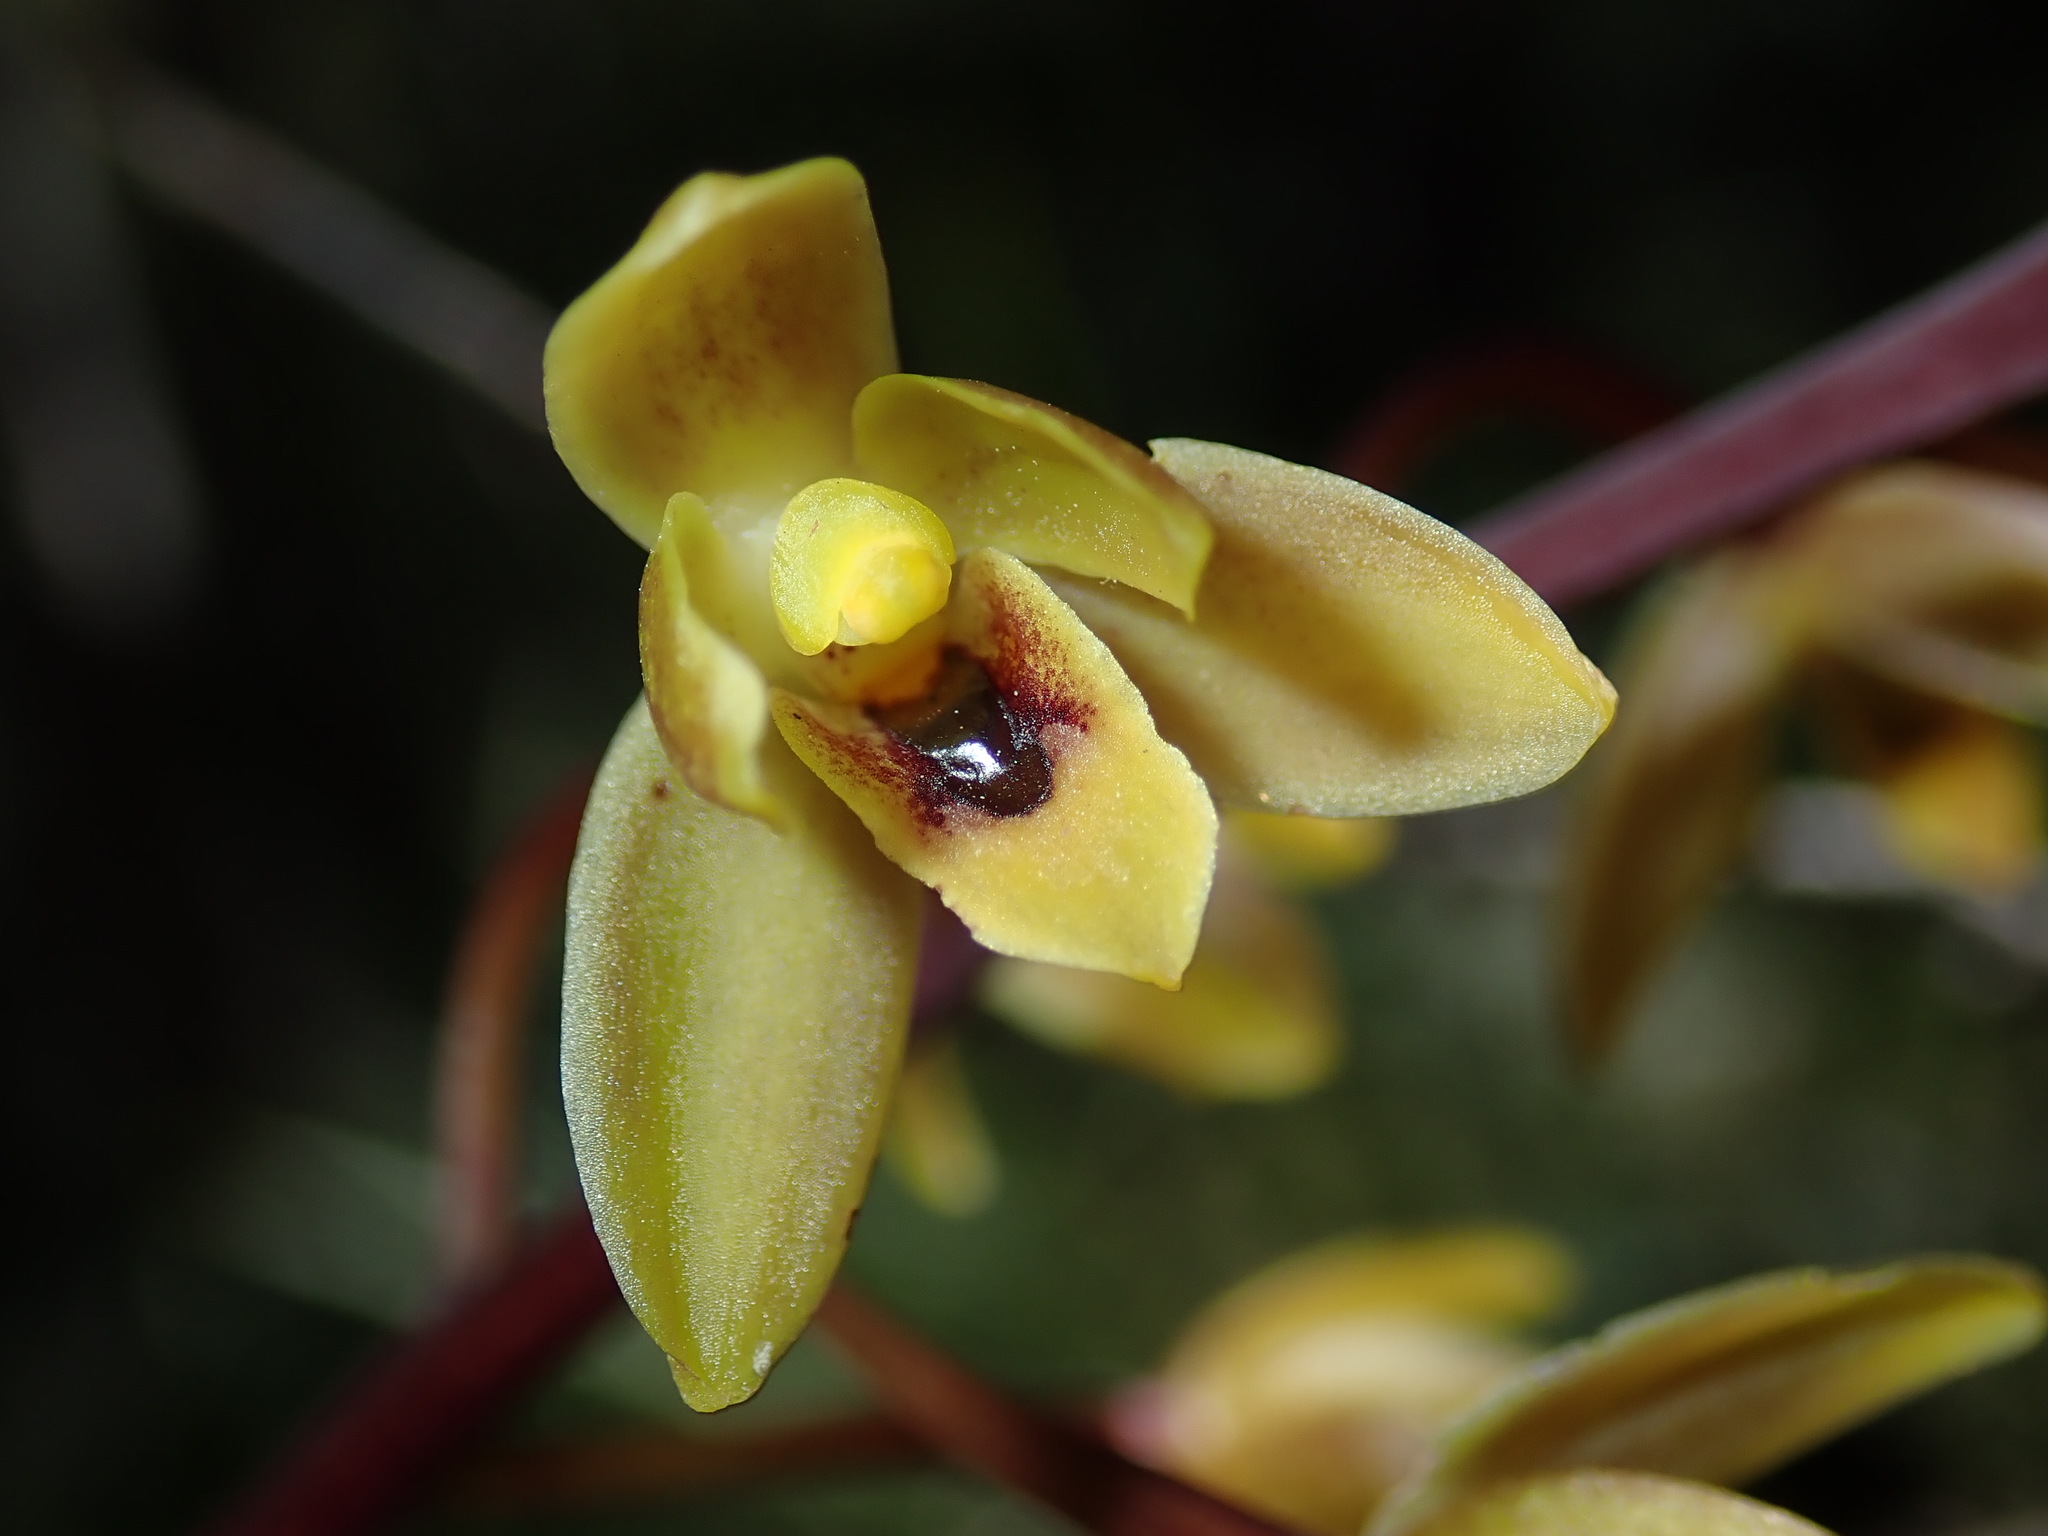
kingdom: Plantae
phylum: Tracheophyta
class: Liliopsida
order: Asparagales
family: Orchidaceae
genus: Cymbidium
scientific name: Cymbidium suave
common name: Snake orchid
